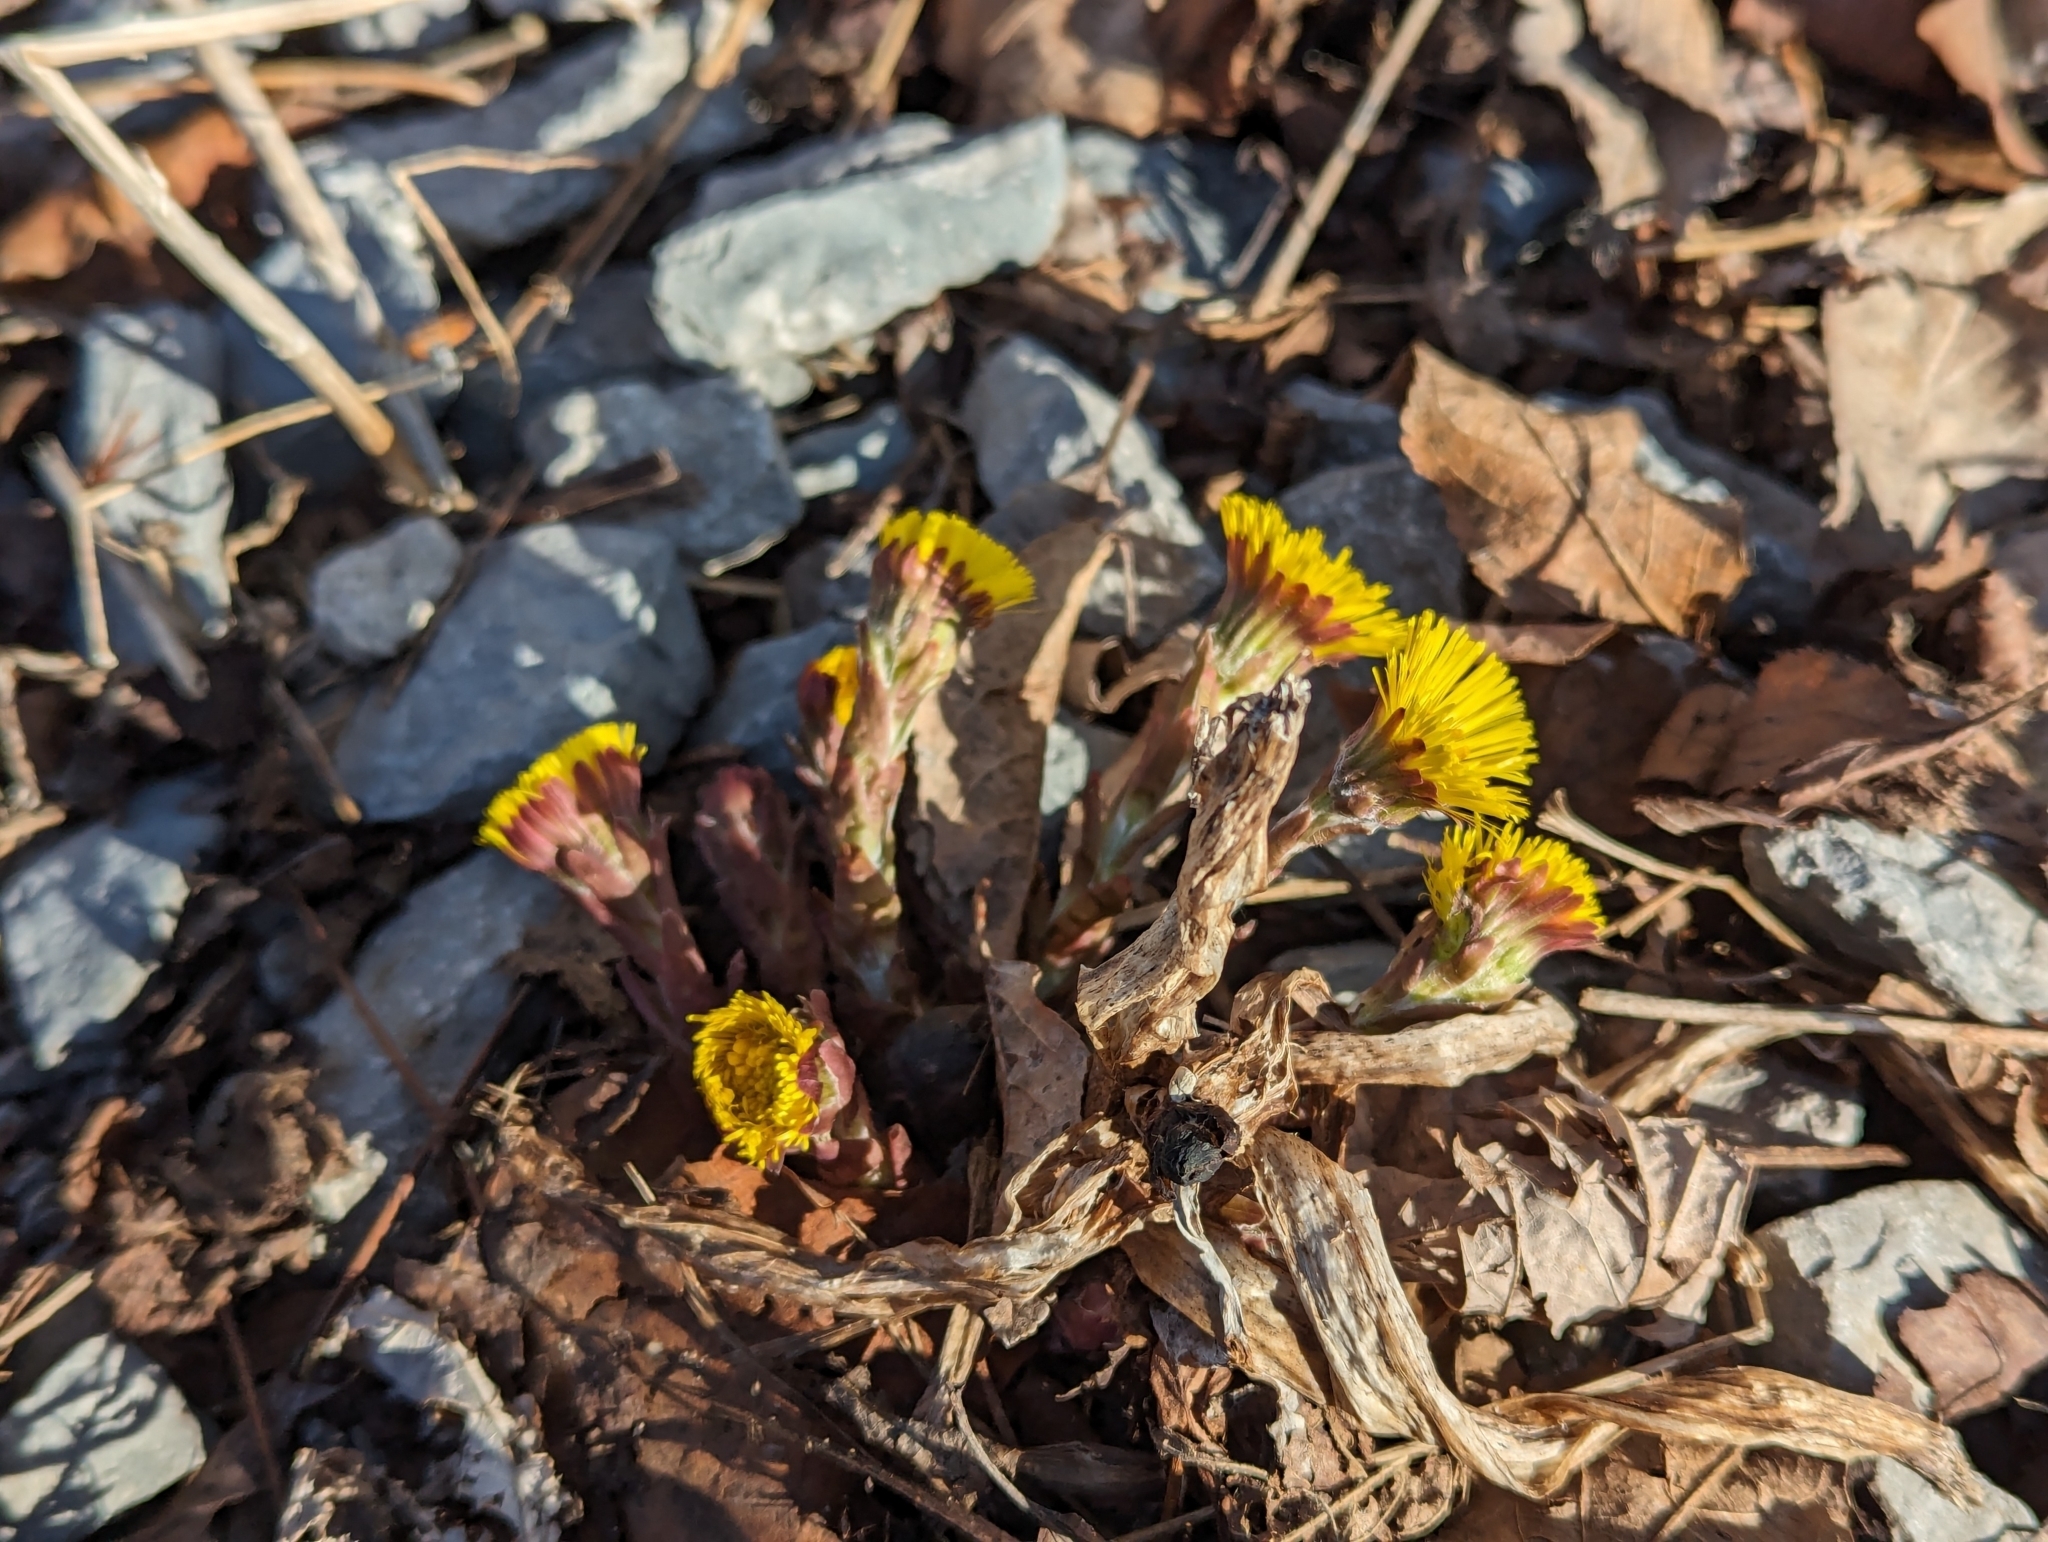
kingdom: Plantae
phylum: Tracheophyta
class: Magnoliopsida
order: Asterales
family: Asteraceae
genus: Tussilago
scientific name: Tussilago farfara
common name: Coltsfoot
